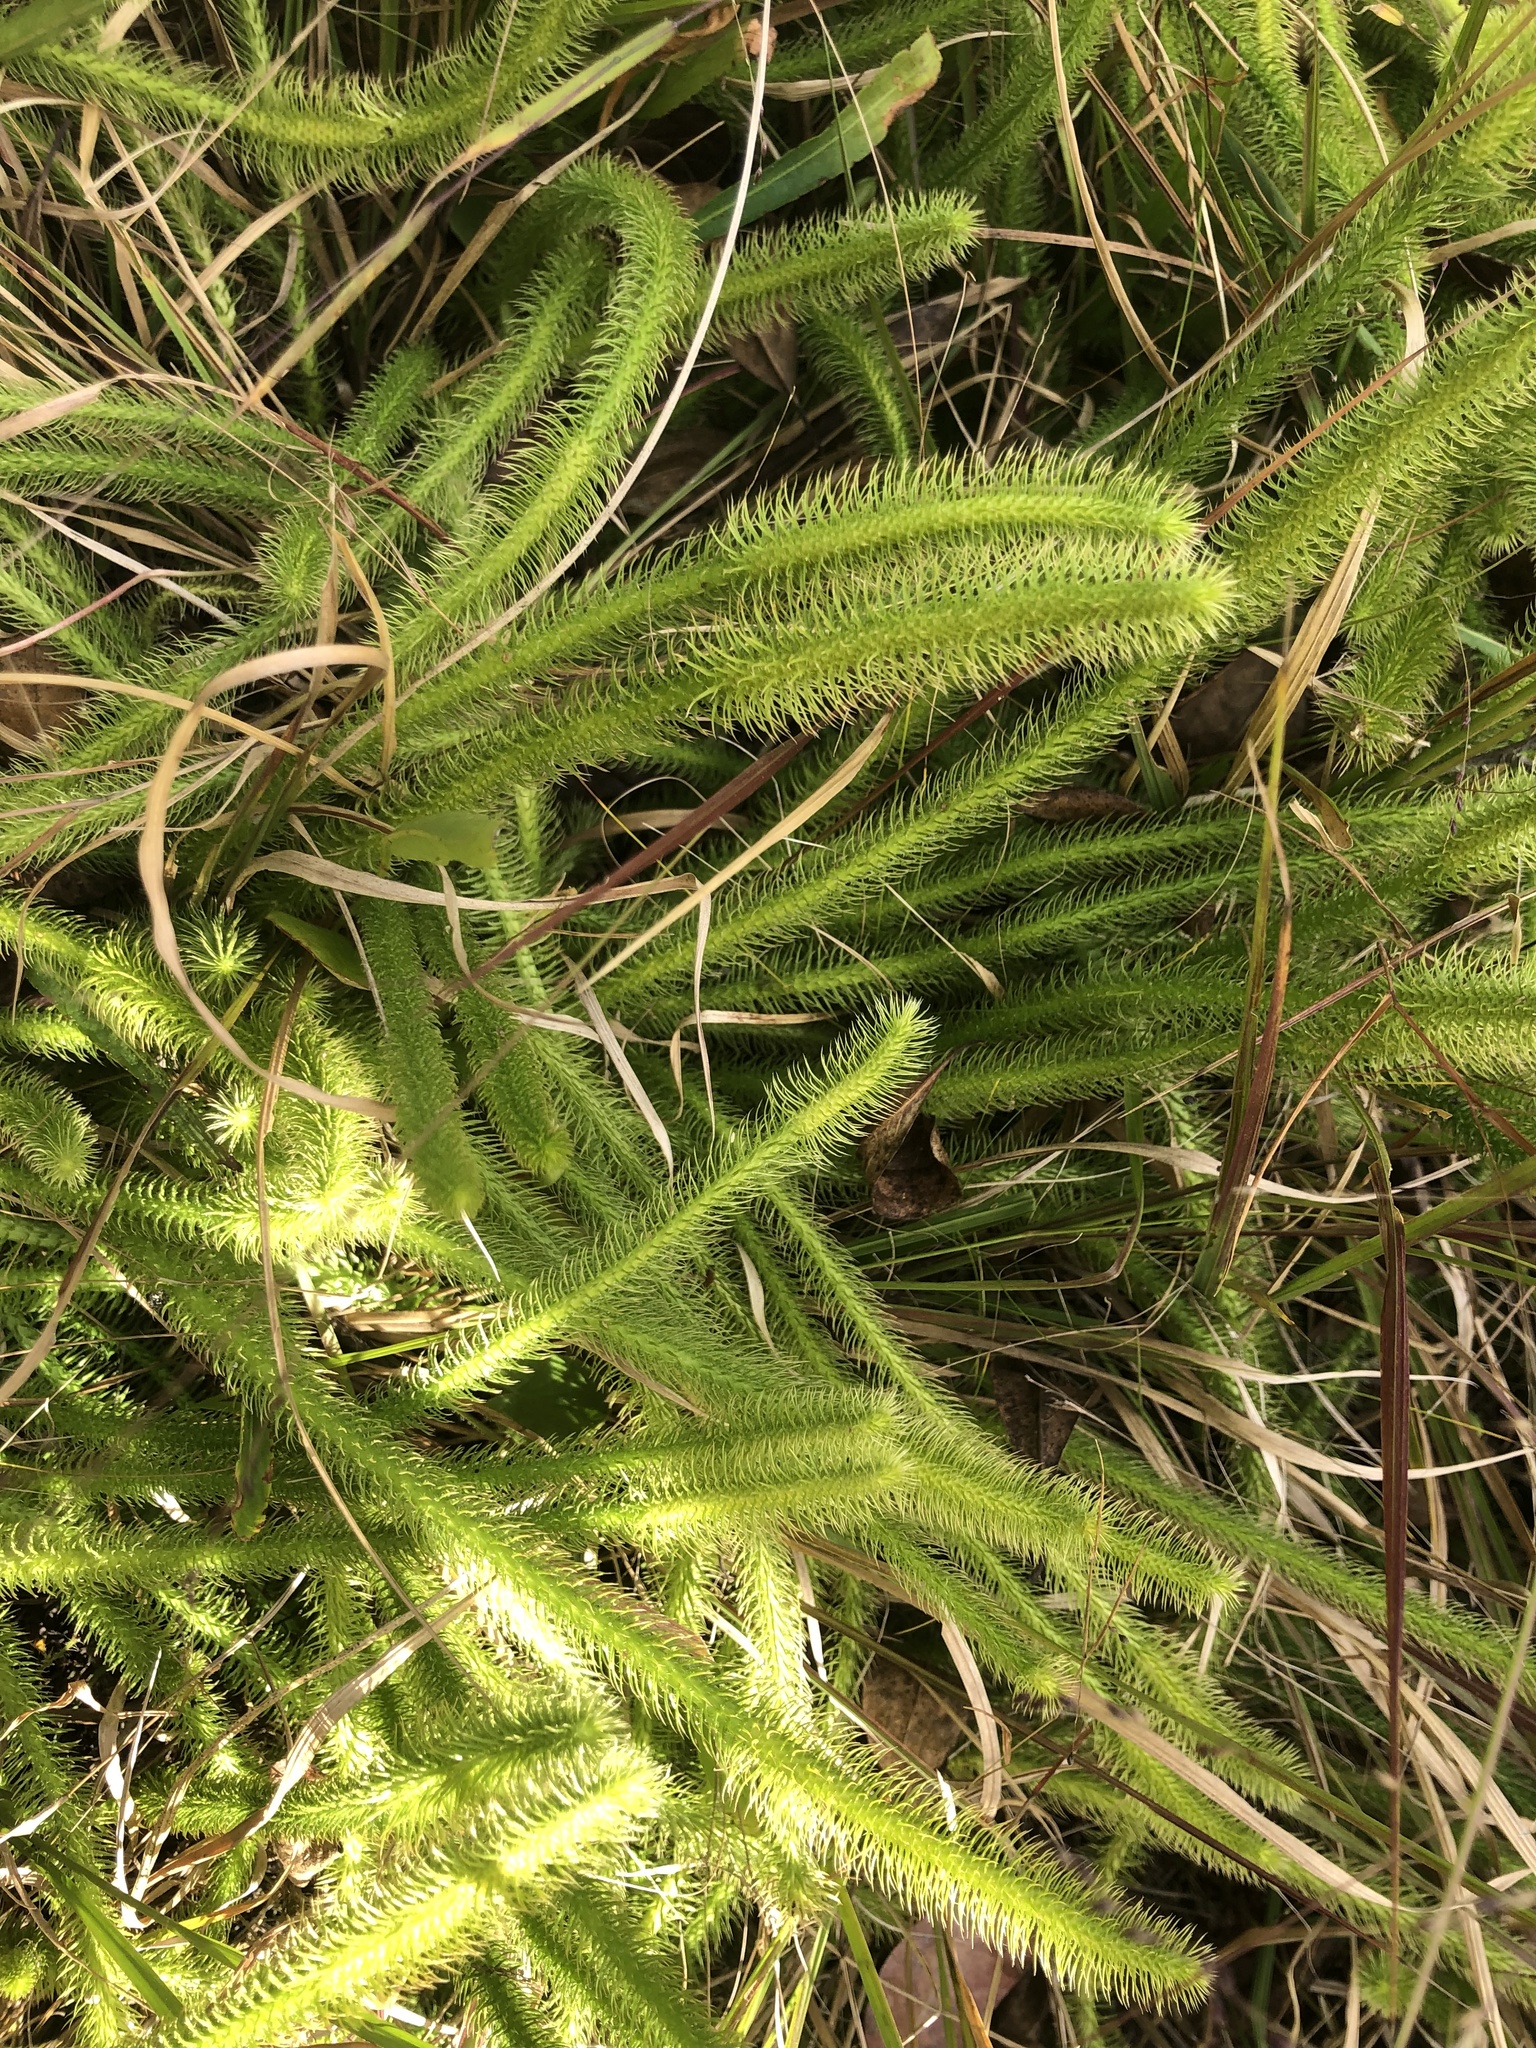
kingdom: Plantae
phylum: Tracheophyta
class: Lycopodiopsida
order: Lycopodiales
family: Lycopodiaceae
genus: Lycopodiella
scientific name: Lycopodiella alopecuroides
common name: Foxtail clubmoss
